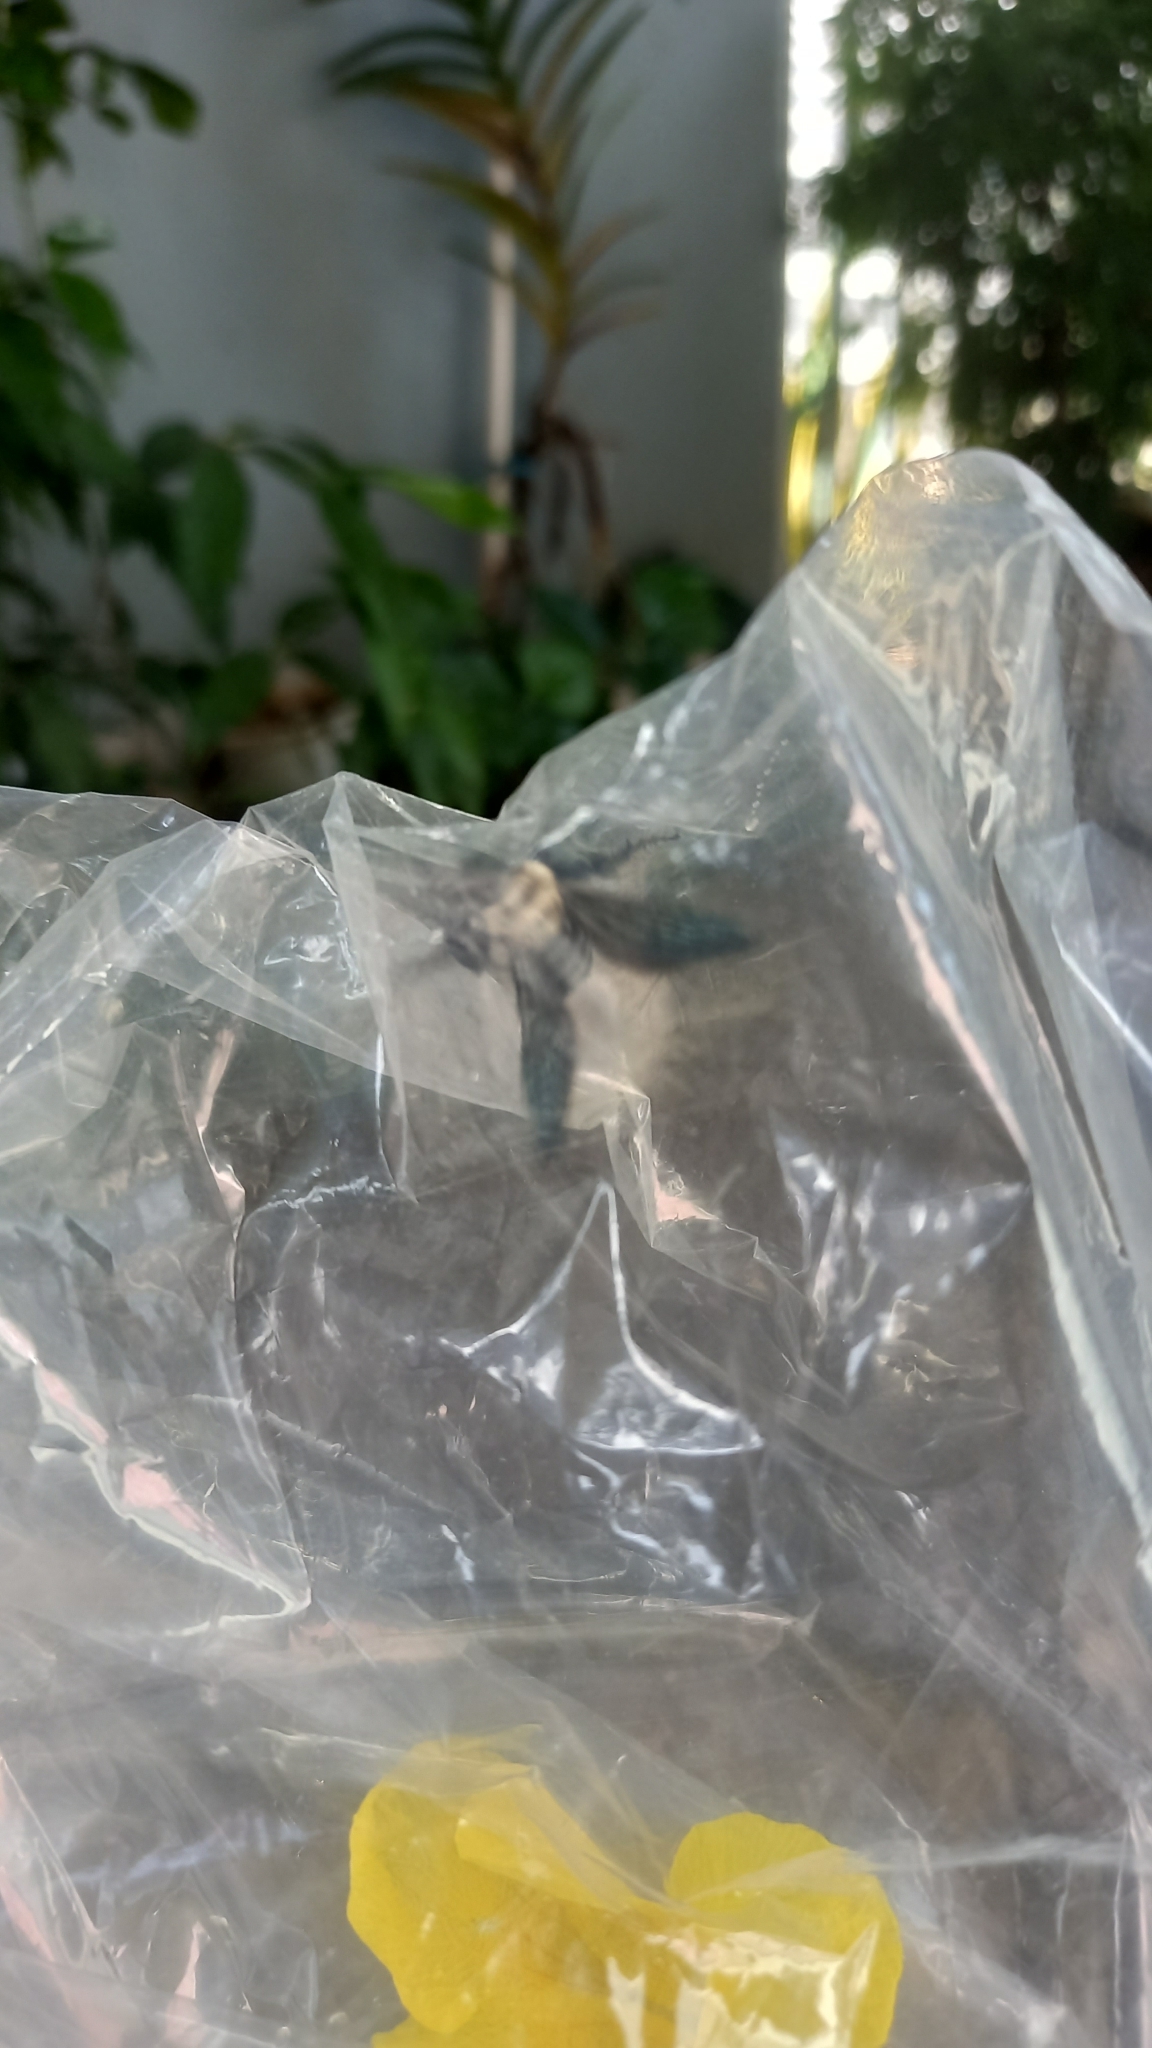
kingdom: Animalia
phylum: Arthropoda
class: Insecta
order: Hymenoptera
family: Apidae
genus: Xylocopa
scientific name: Xylocopa phalothorax
